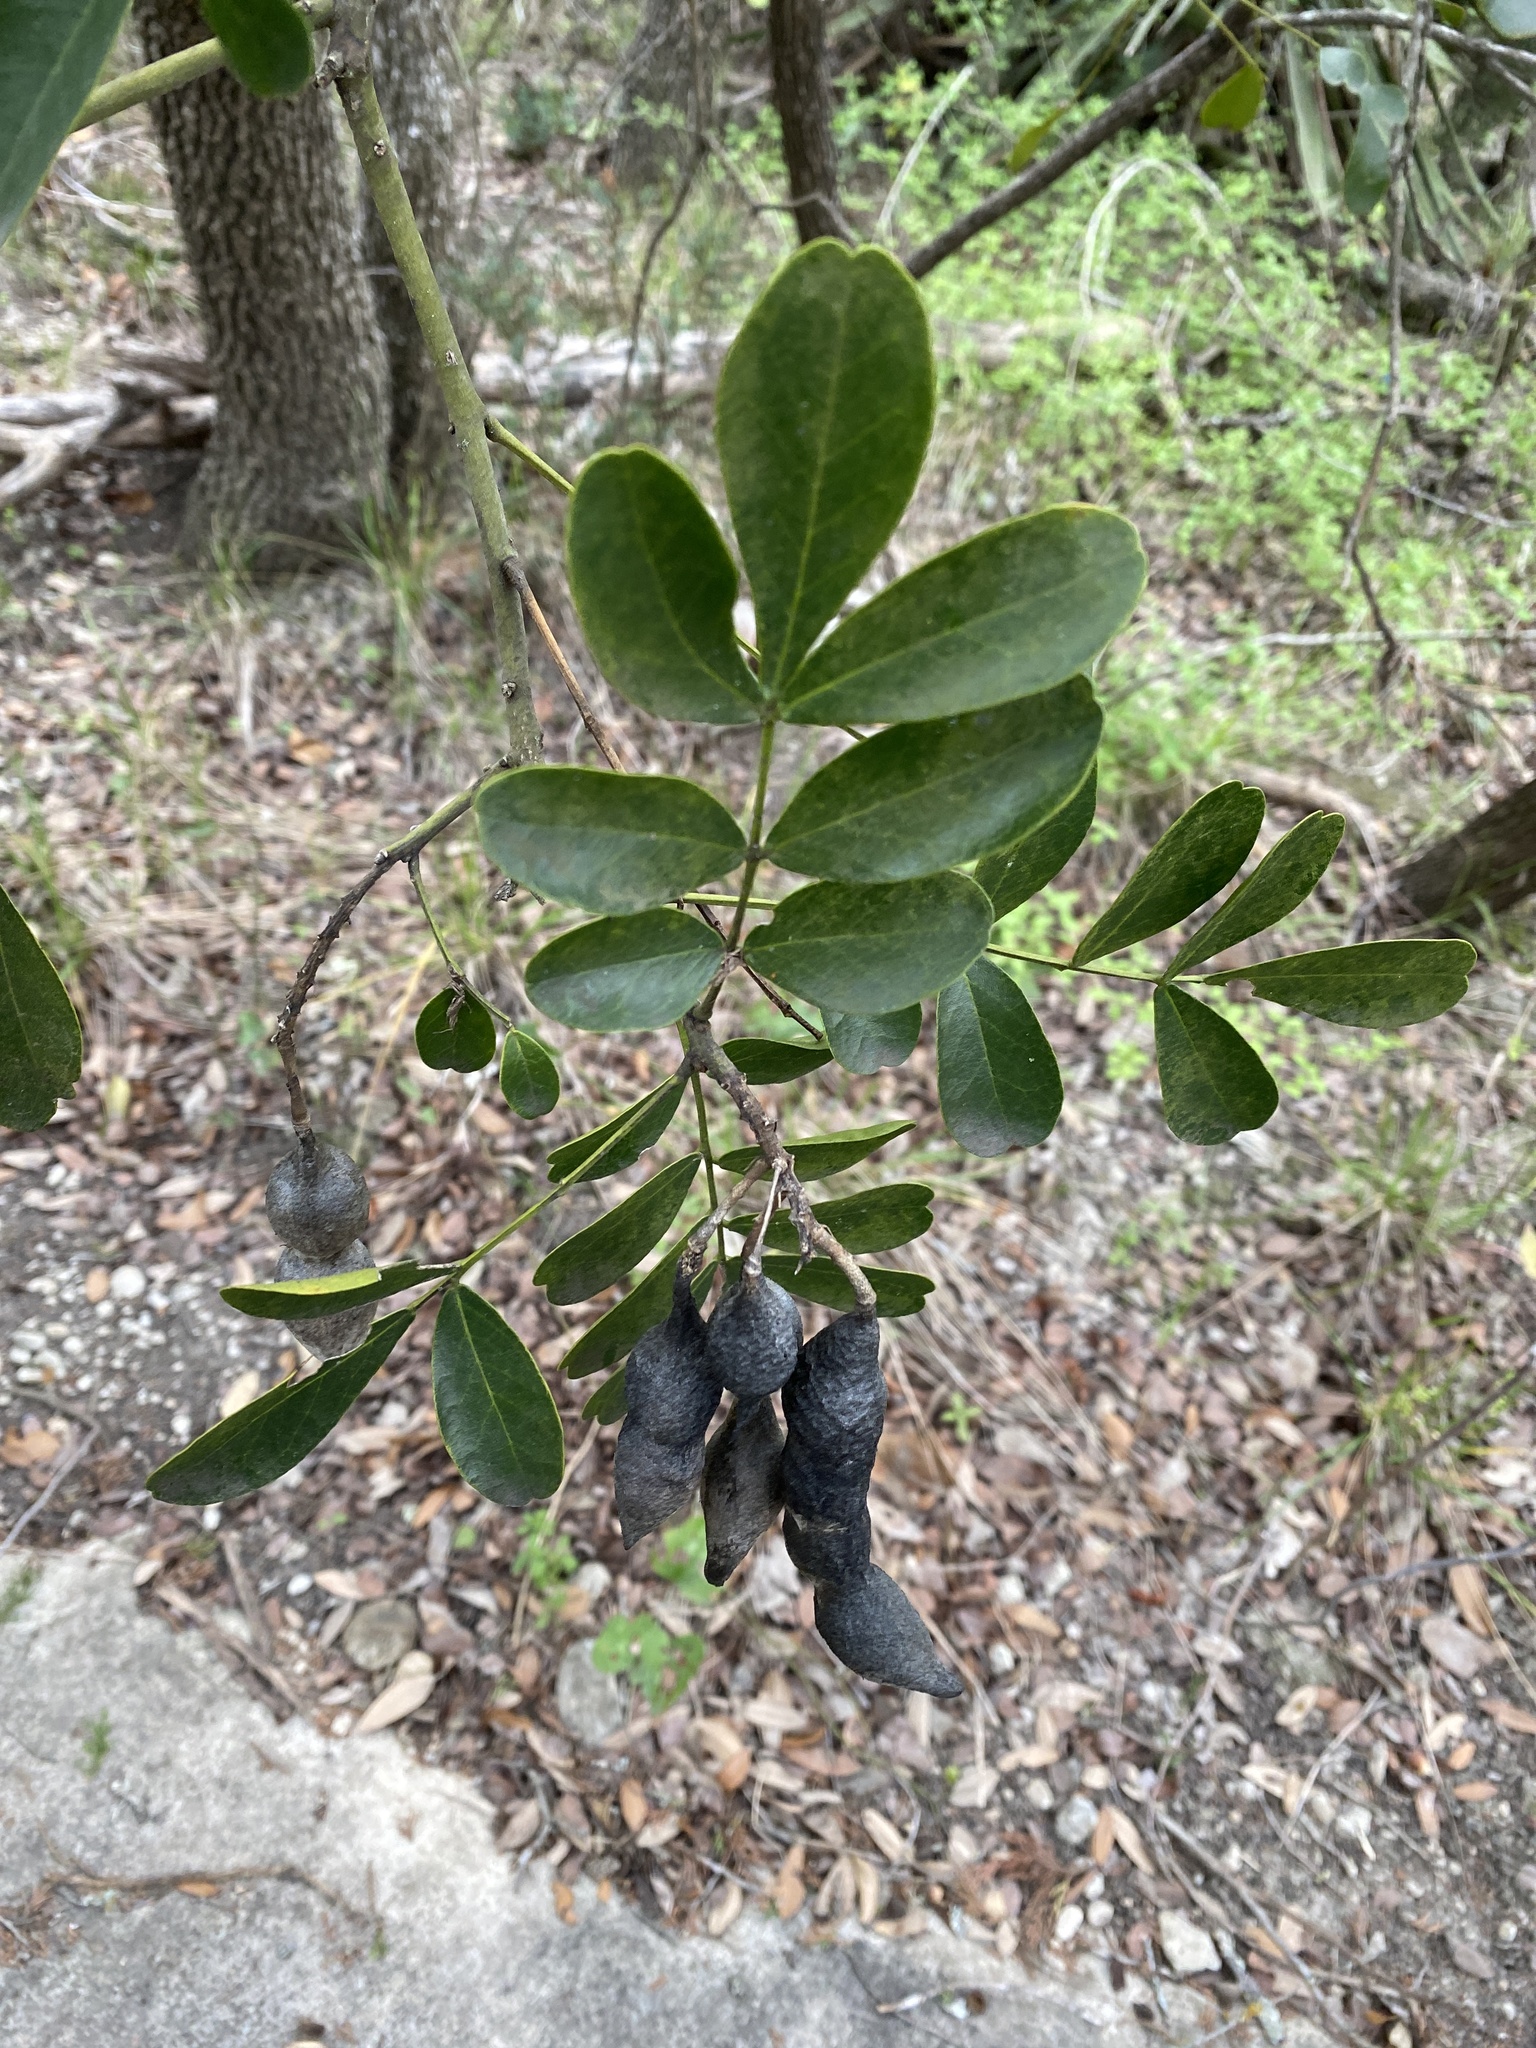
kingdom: Plantae
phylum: Tracheophyta
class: Magnoliopsida
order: Fabales
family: Fabaceae
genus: Dermatophyllum
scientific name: Dermatophyllum secundiflorum
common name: Texas-mountain-laurel
